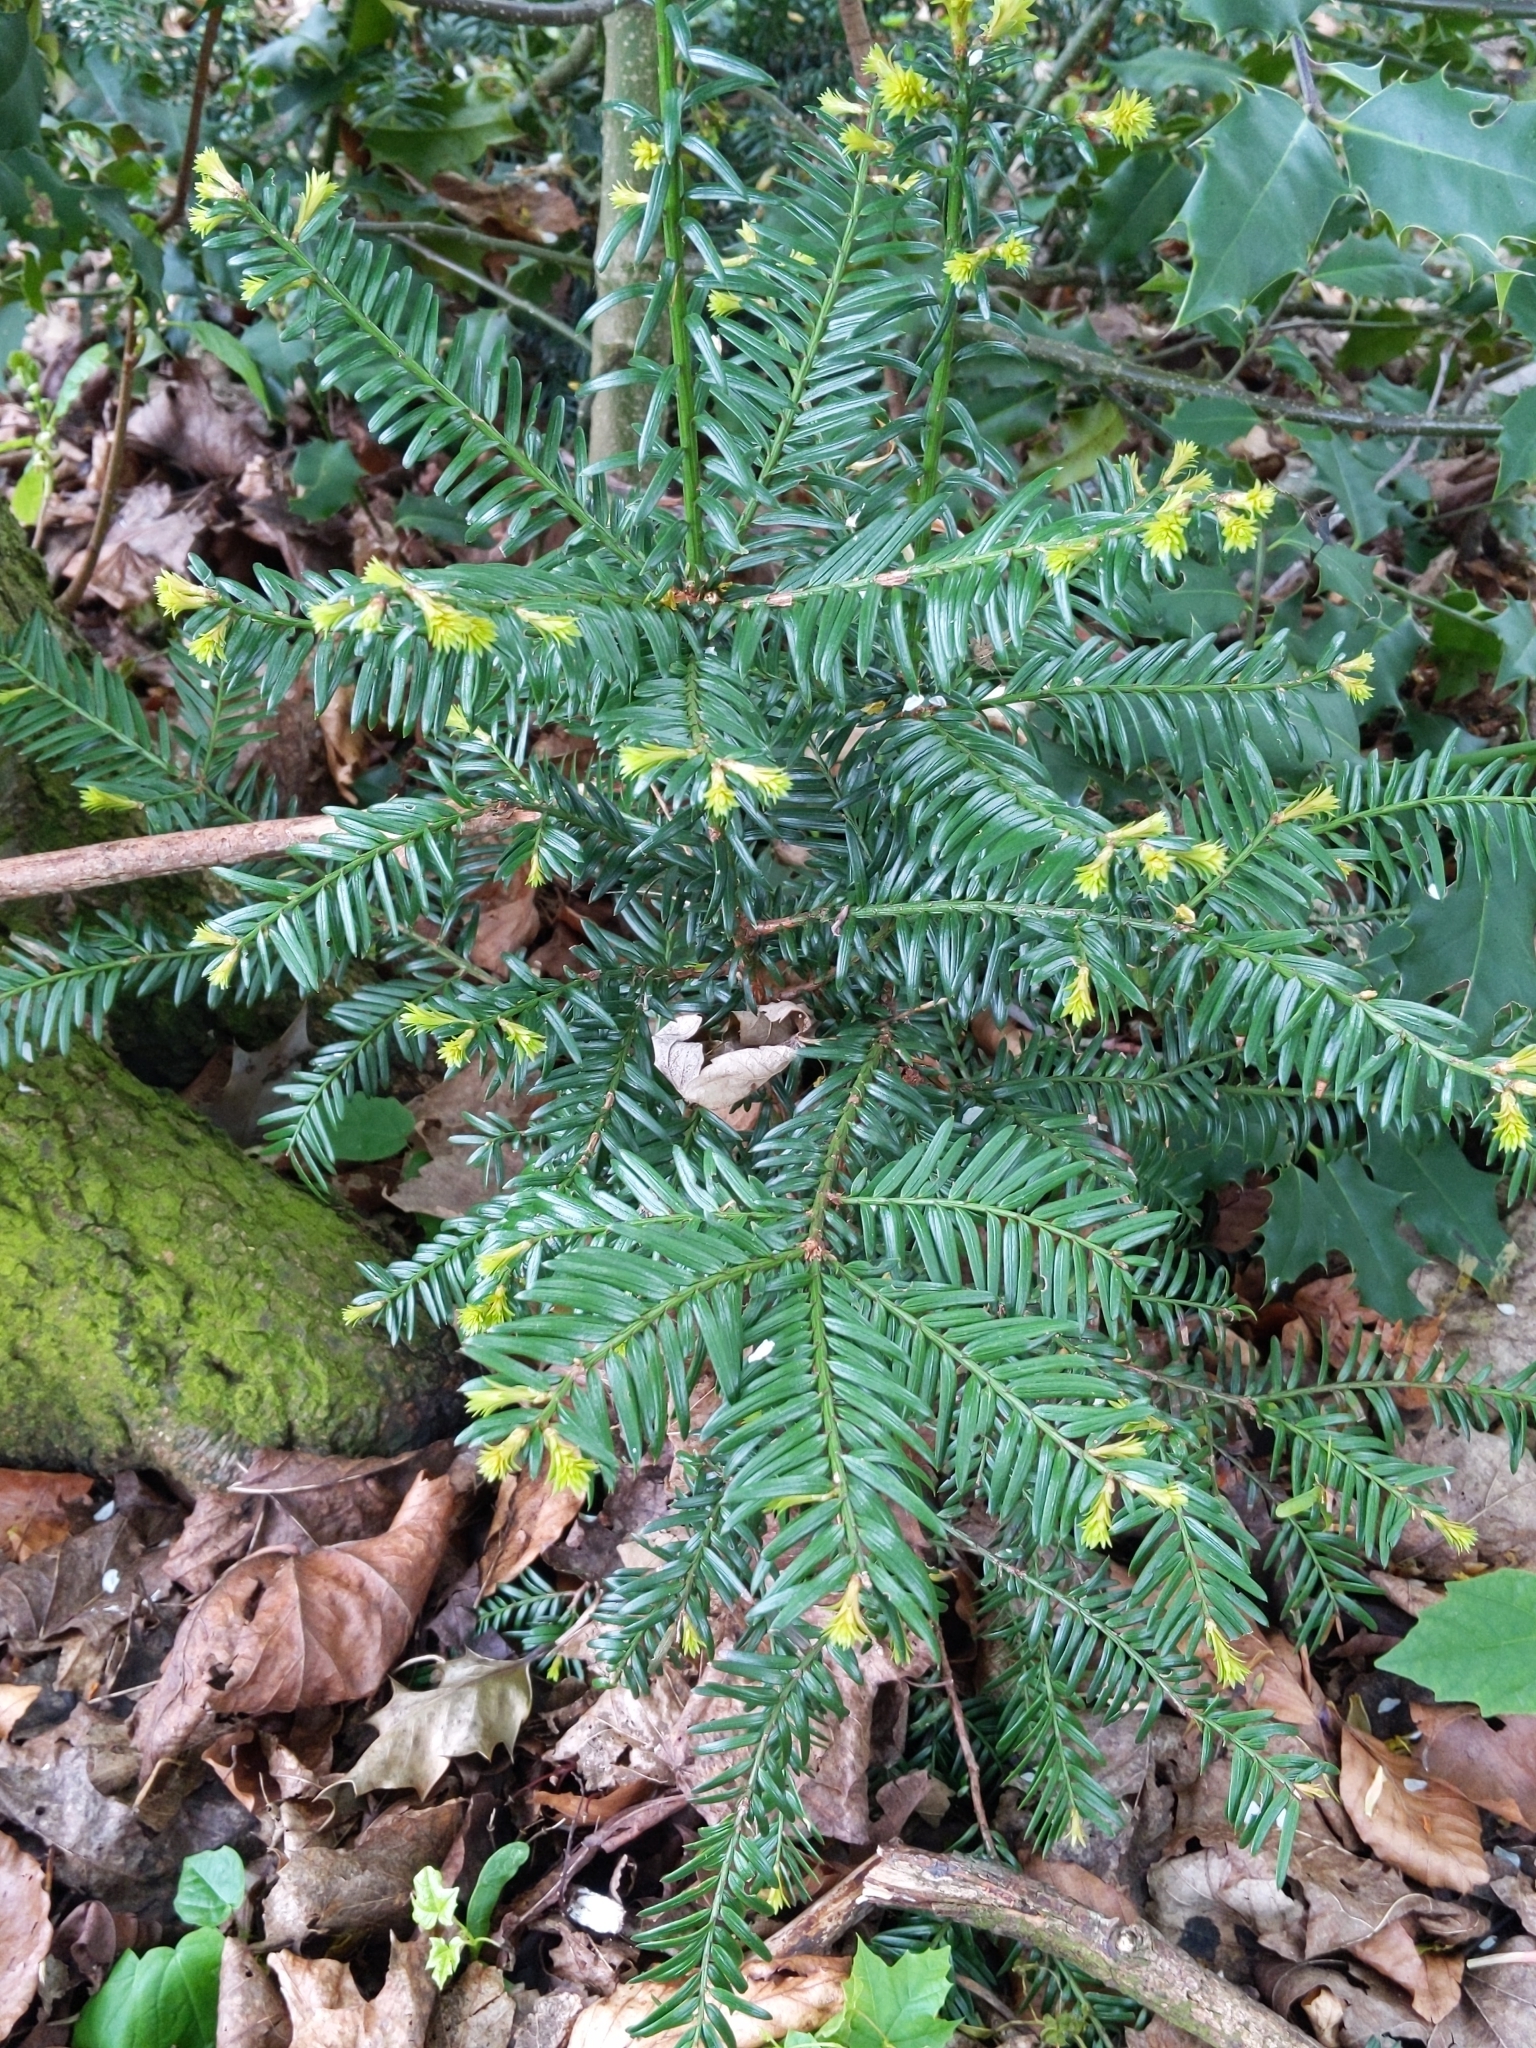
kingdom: Plantae
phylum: Tracheophyta
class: Pinopsida
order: Pinales
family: Taxaceae
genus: Taxus
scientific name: Taxus baccata
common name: Yew
